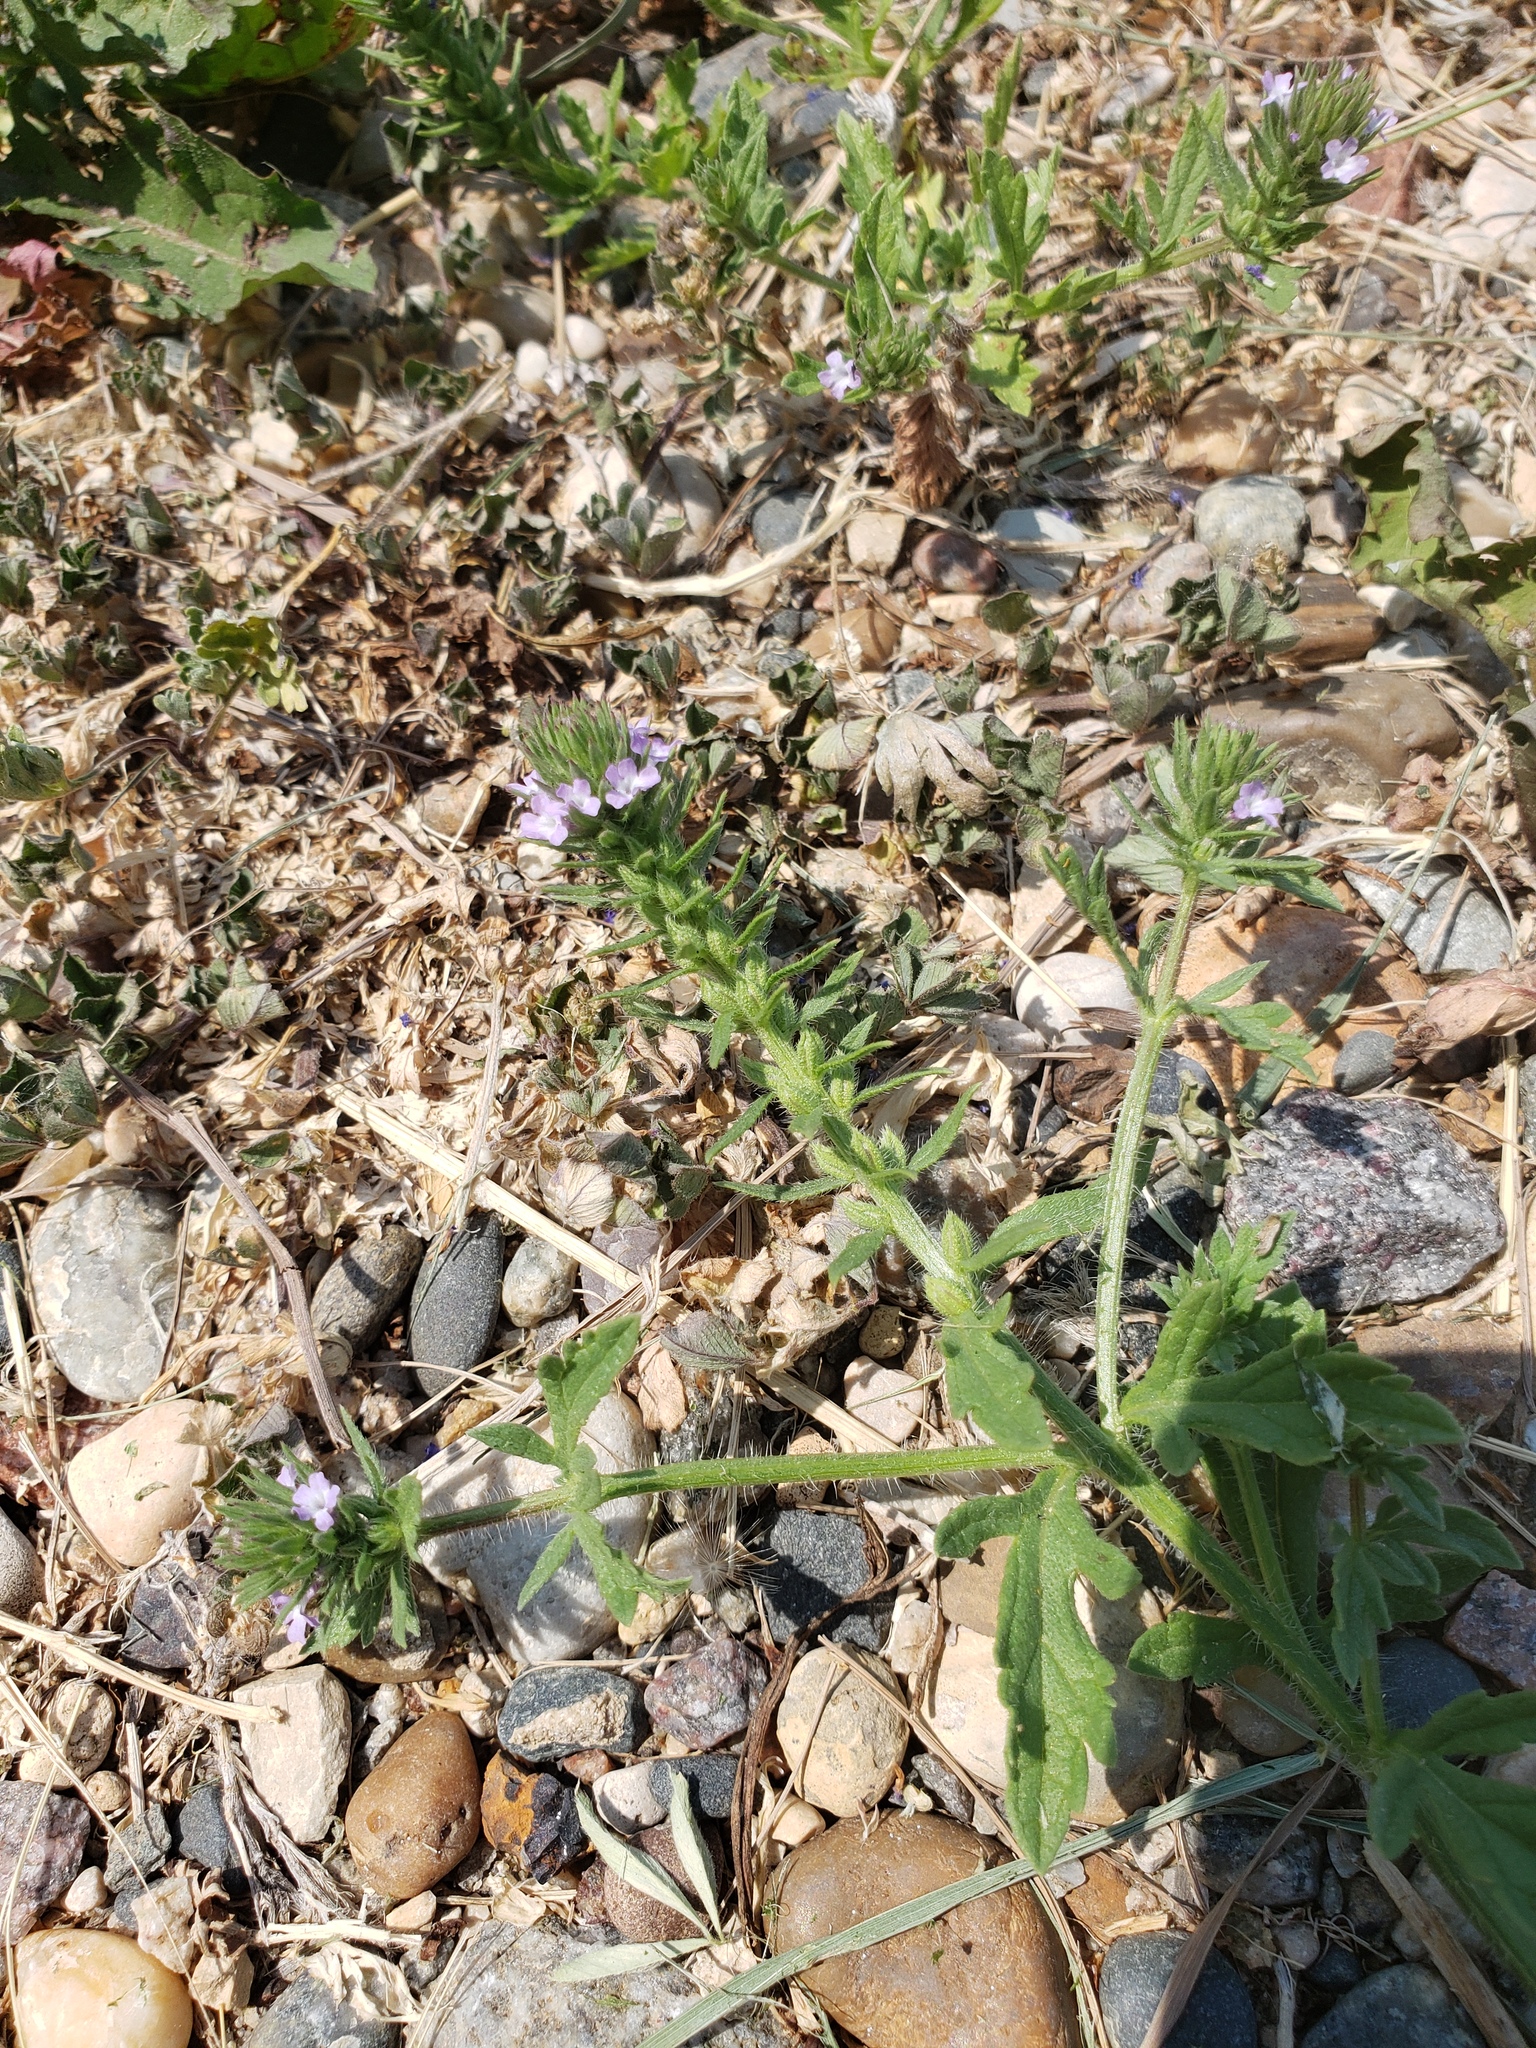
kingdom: Plantae
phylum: Tracheophyta
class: Magnoliopsida
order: Lamiales
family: Verbenaceae
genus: Verbena
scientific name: Verbena bracteata
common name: Bracted vervain
